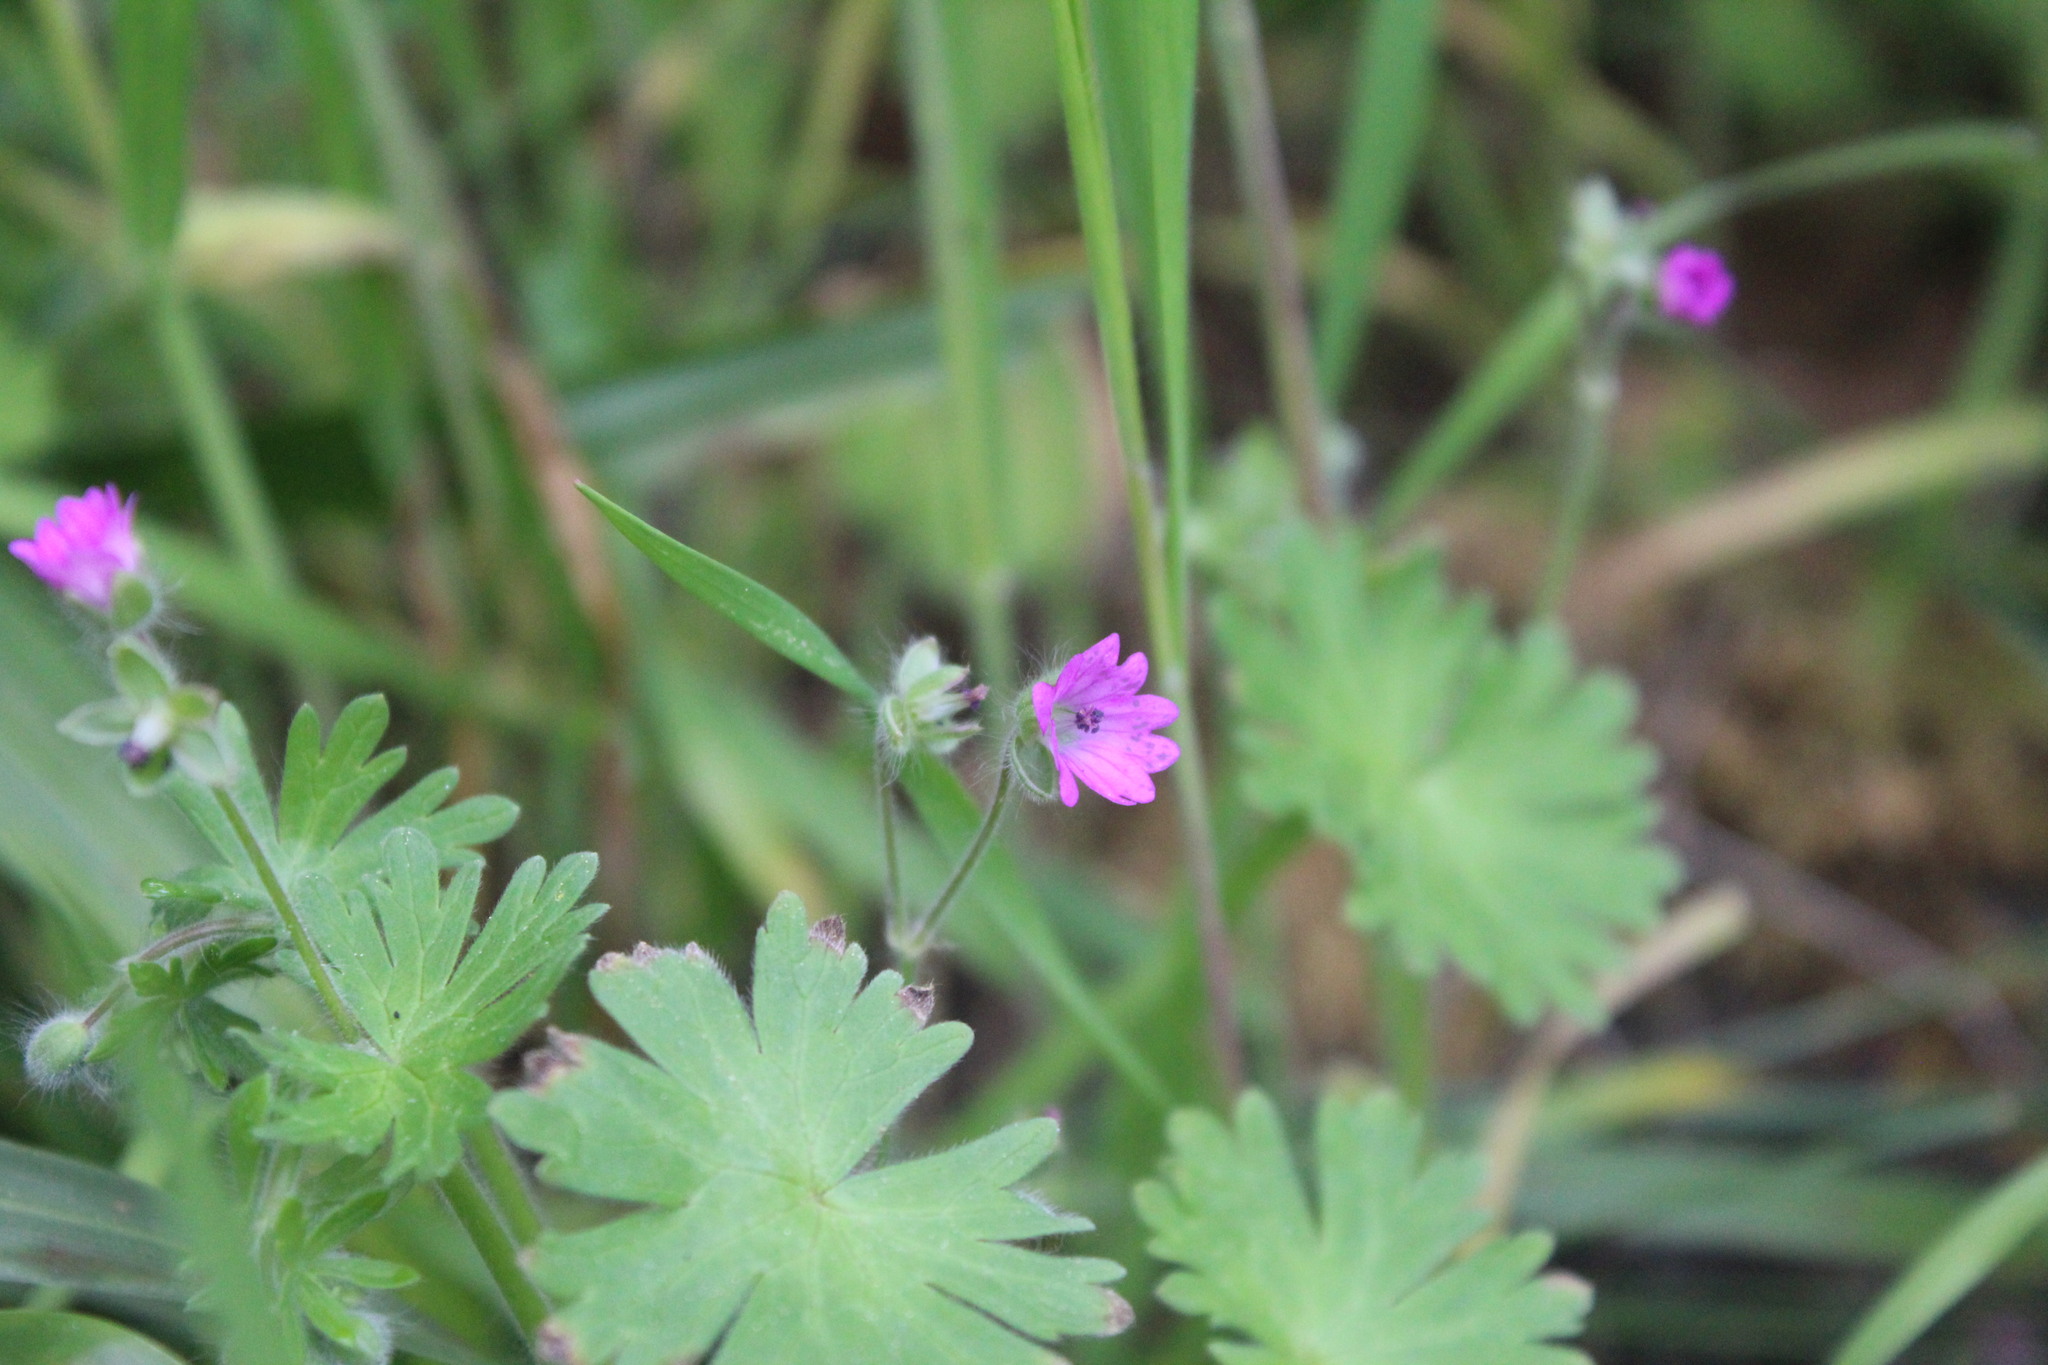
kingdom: Plantae
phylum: Tracheophyta
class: Magnoliopsida
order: Geraniales
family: Geraniaceae
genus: Geranium
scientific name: Geranium molle
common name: Dove's-foot crane's-bill
